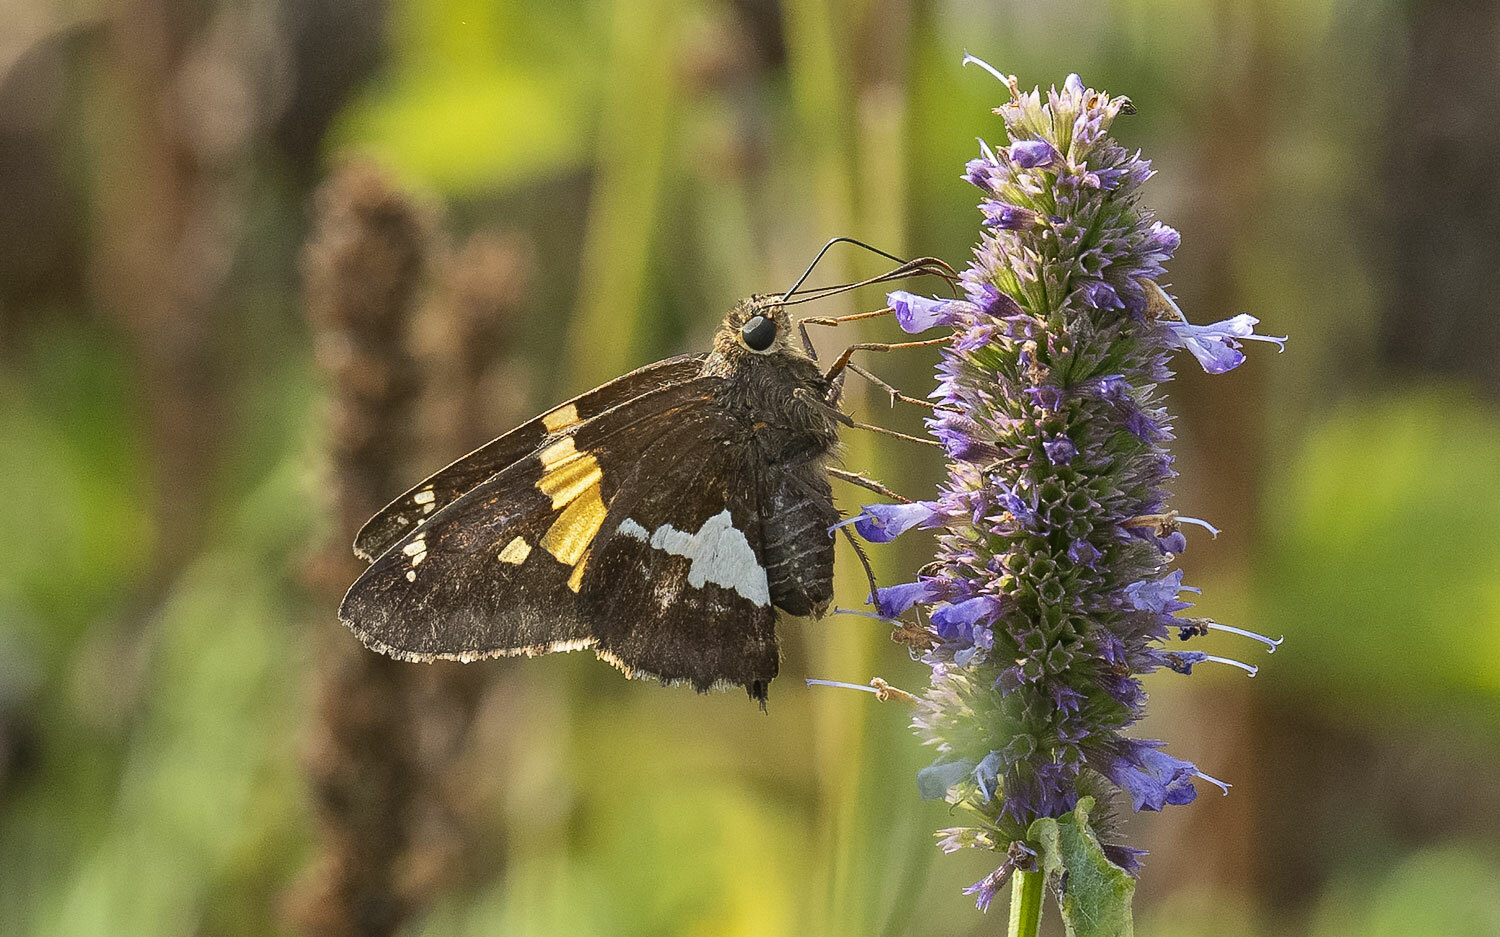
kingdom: Animalia
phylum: Arthropoda
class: Insecta
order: Lepidoptera
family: Hesperiidae
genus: Epargyreus
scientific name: Epargyreus clarus
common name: Silver-spotted skipper
